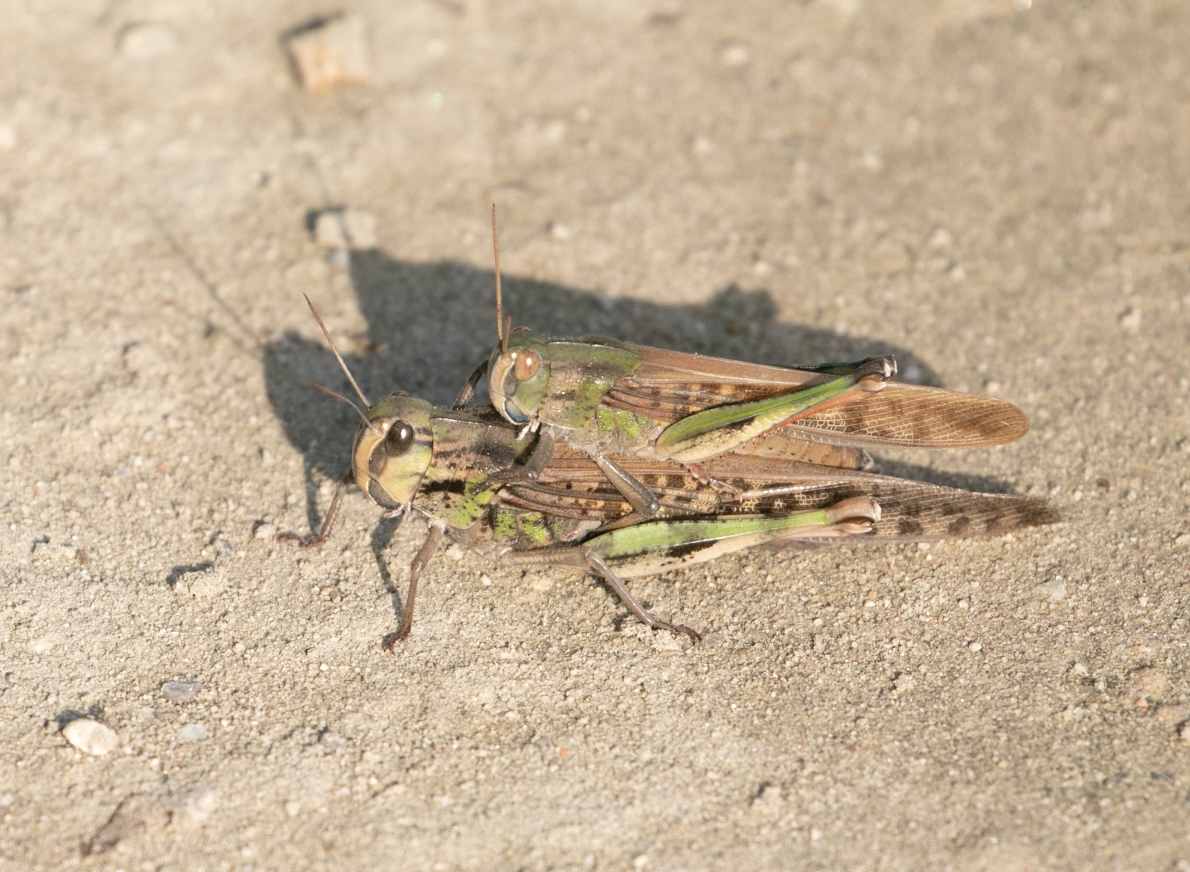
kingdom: Animalia
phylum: Arthropoda
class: Insecta
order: Orthoptera
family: Acrididae
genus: Locusta
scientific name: Locusta migratoria
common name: Migratory locust
